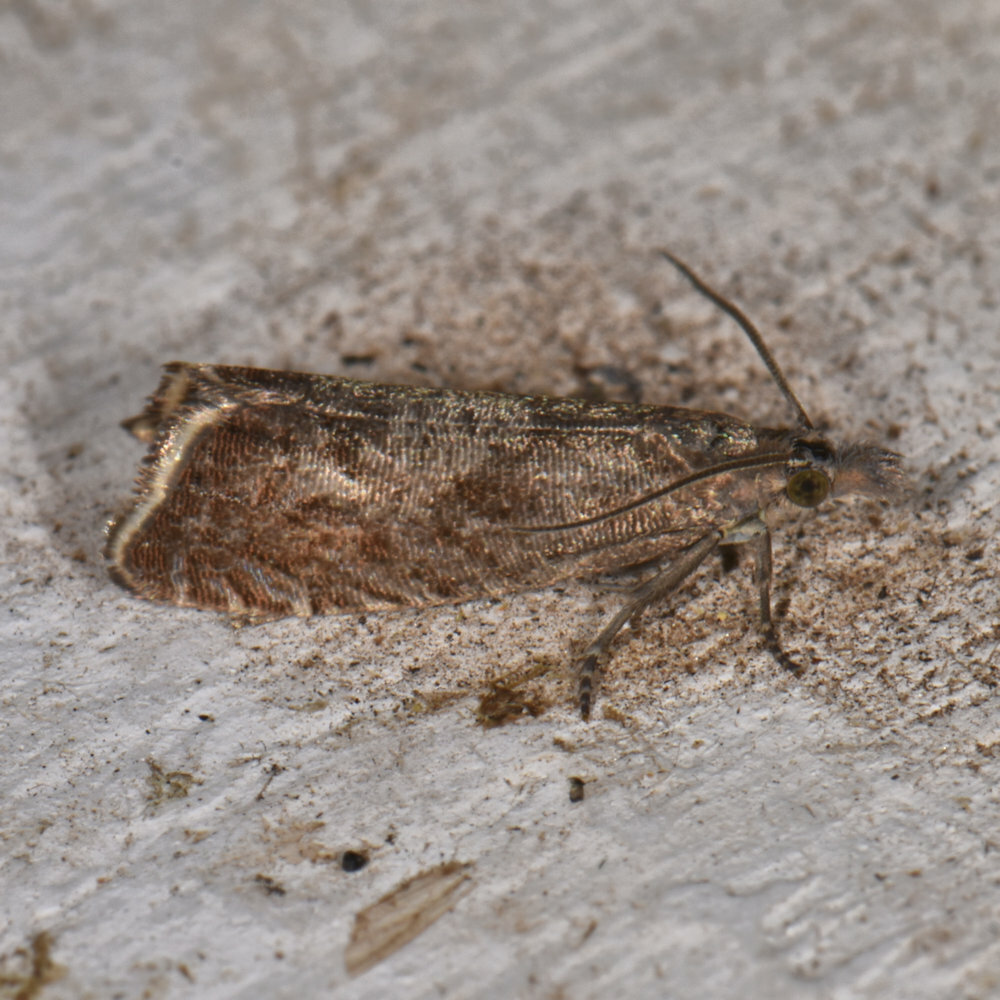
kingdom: Animalia
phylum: Arthropoda
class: Insecta
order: Lepidoptera
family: Tortricidae
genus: Dichrorampha
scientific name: Dichrorampha acuminatana
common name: Sharp-winged drill
